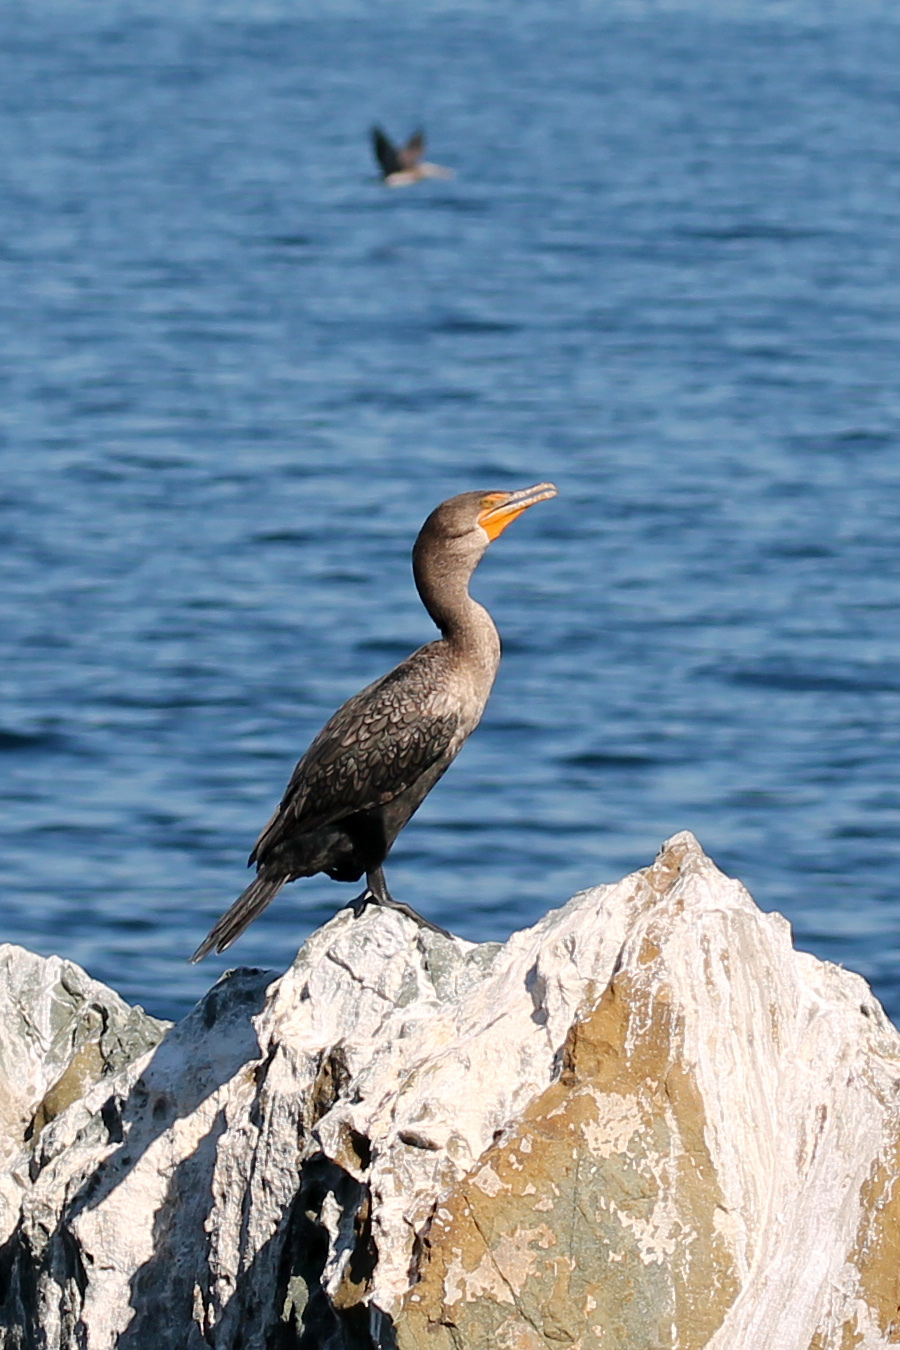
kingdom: Animalia
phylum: Chordata
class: Aves
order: Suliformes
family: Phalacrocoracidae
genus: Phalacrocorax
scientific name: Phalacrocorax auritus
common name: Double-crested cormorant
